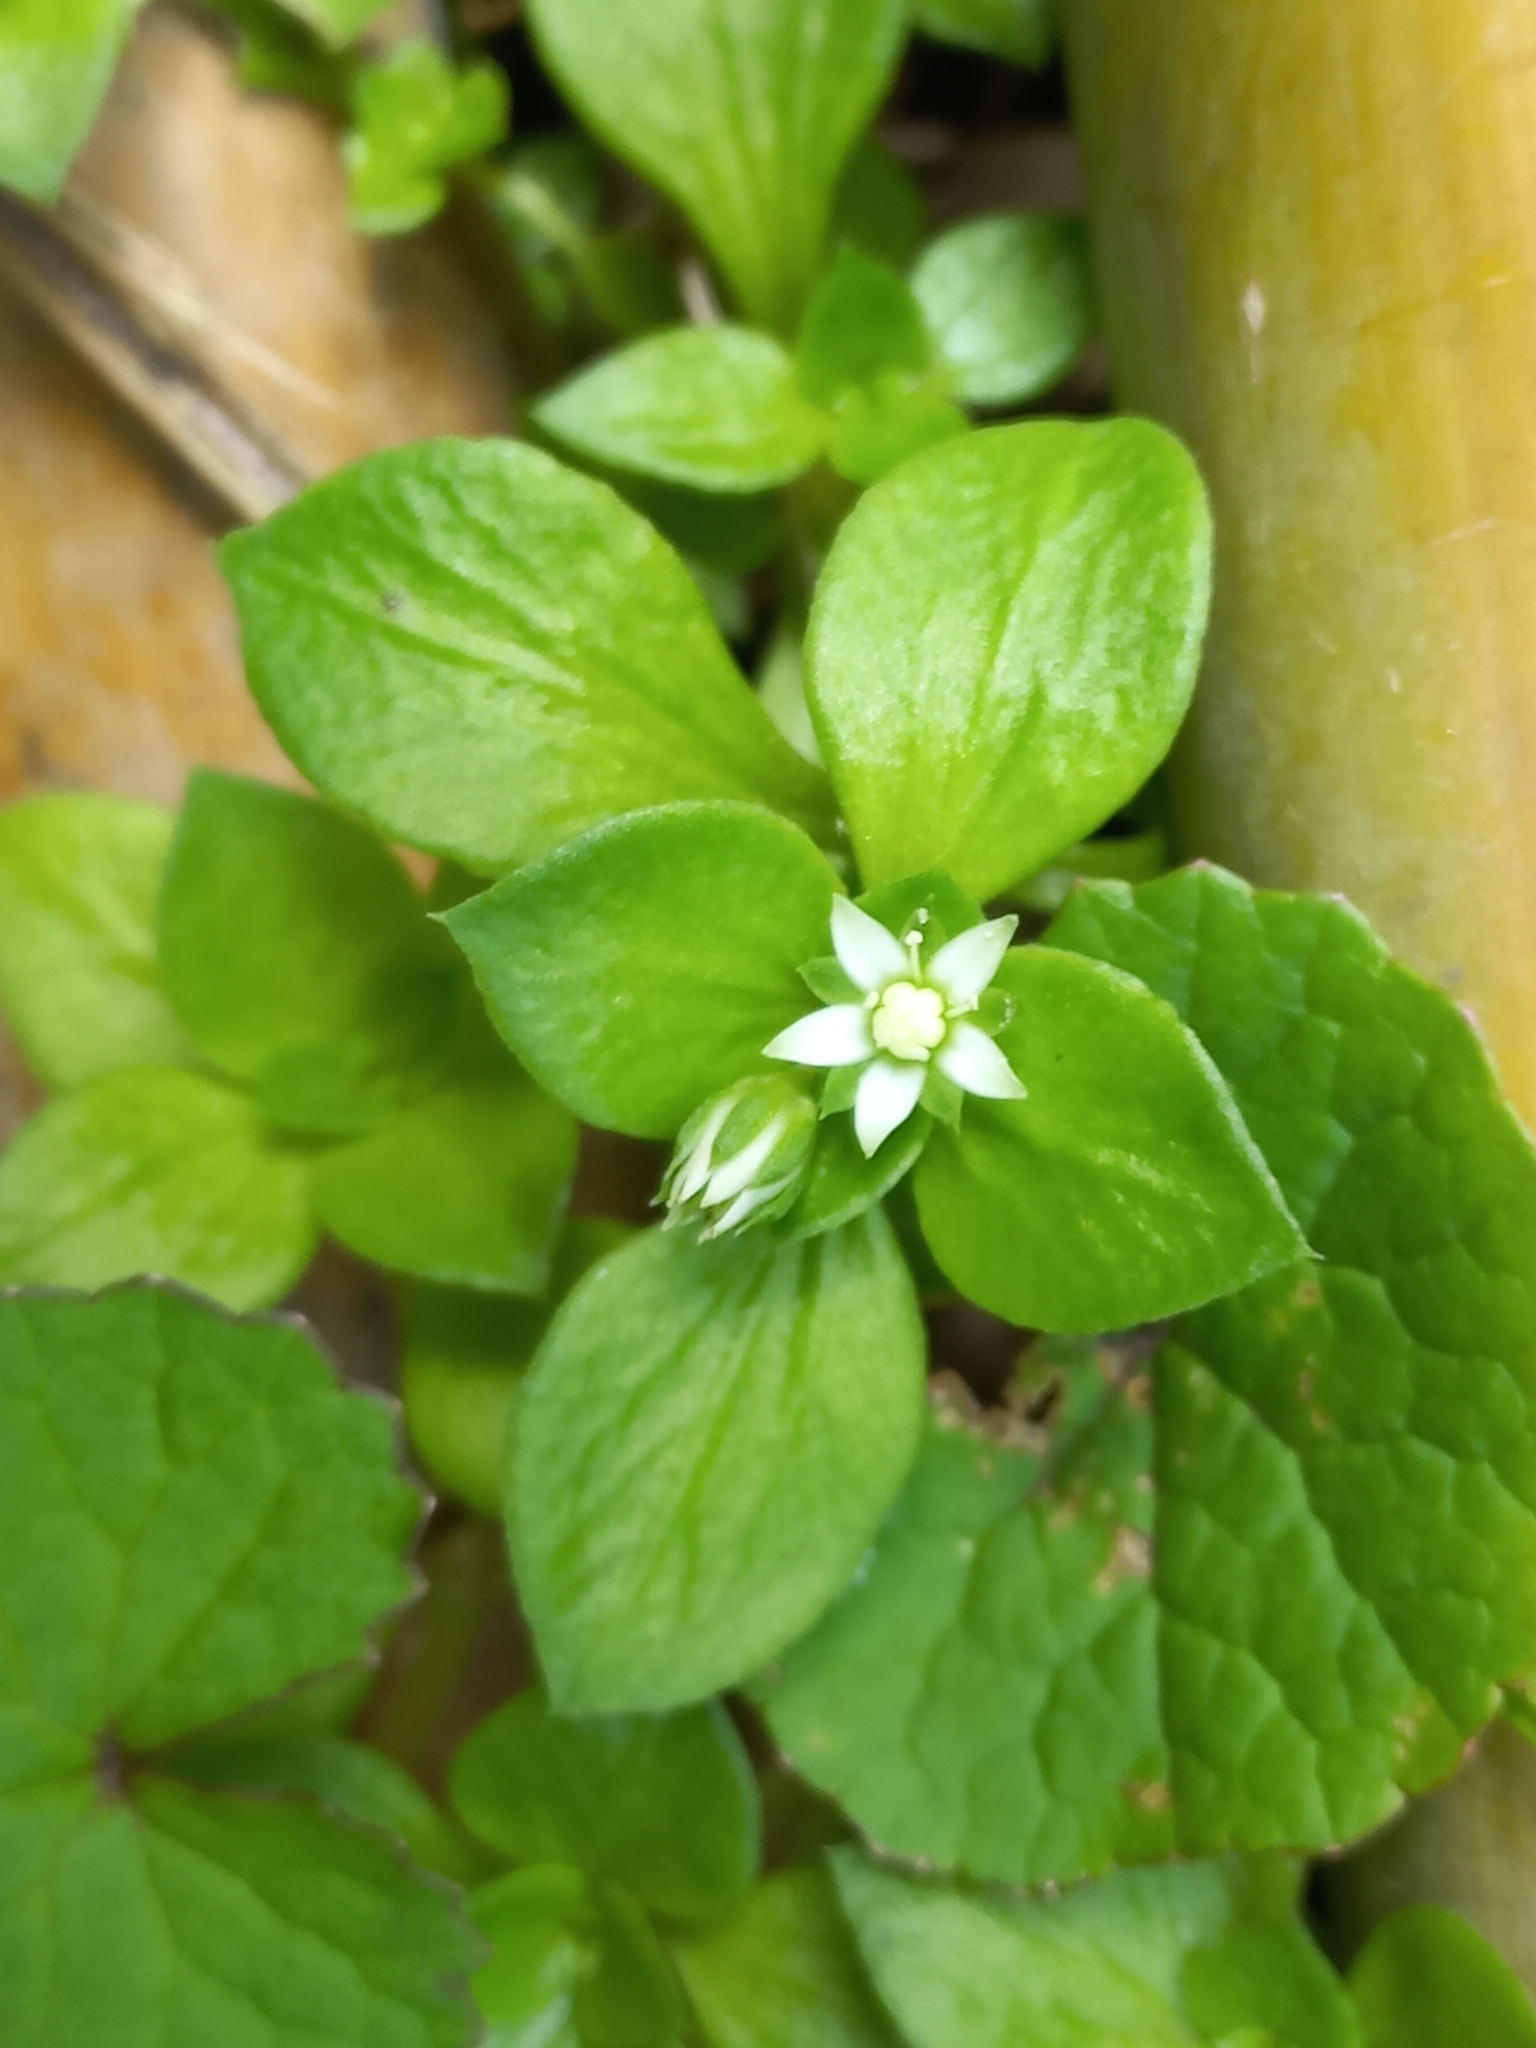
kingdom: Plantae
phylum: Tracheophyta
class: Magnoliopsida
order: Saxifragales
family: Crassulaceae
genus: Crassula
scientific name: Crassula alsinoides
